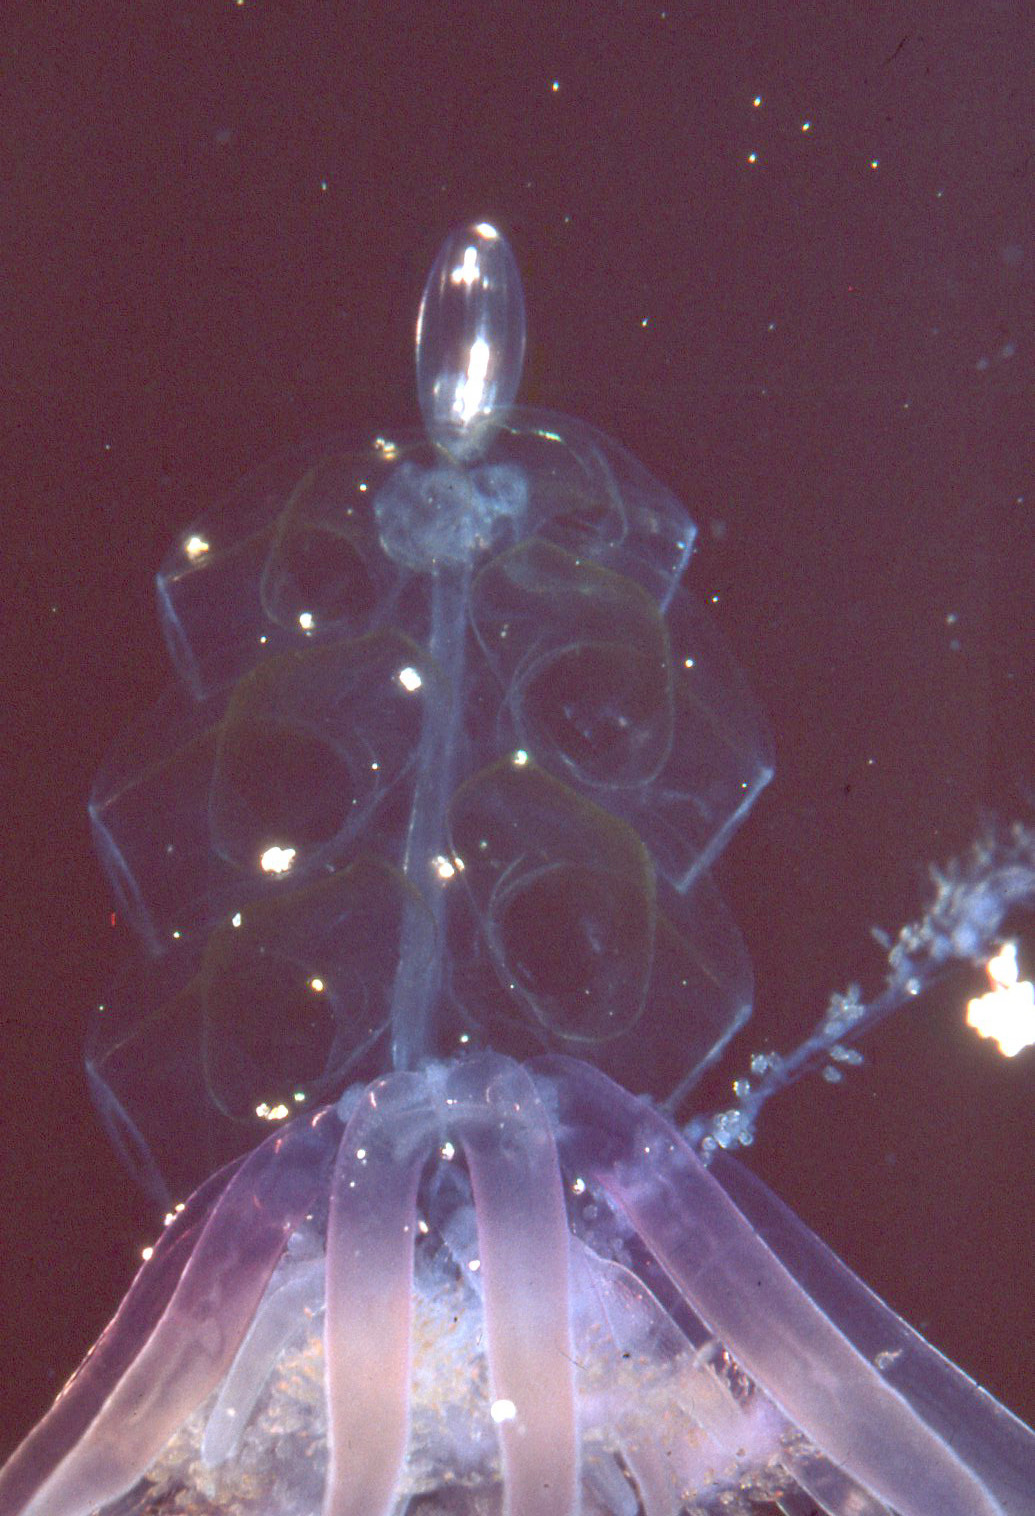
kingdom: Animalia
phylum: Cnidaria
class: Hydrozoa
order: Siphonophorae
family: Physophoridae
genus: Physophora
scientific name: Physophora hydrostatica
